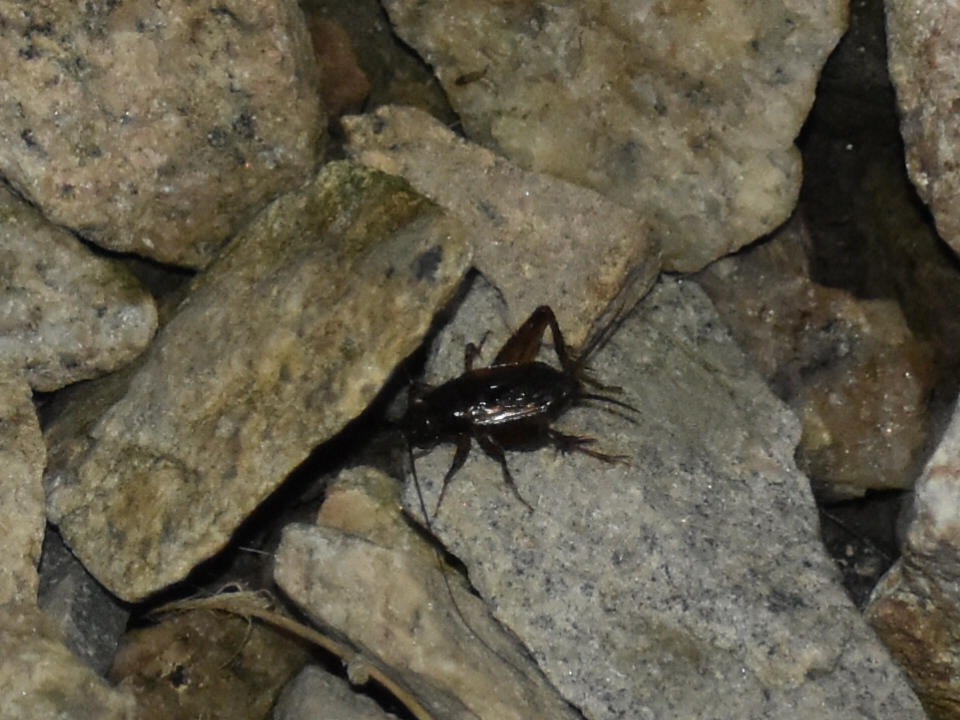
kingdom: Animalia
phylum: Arthropoda
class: Insecta
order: Orthoptera
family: Trigonidiidae
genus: Eunemobius
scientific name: Eunemobius carolinus
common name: Carolina ground cricket
